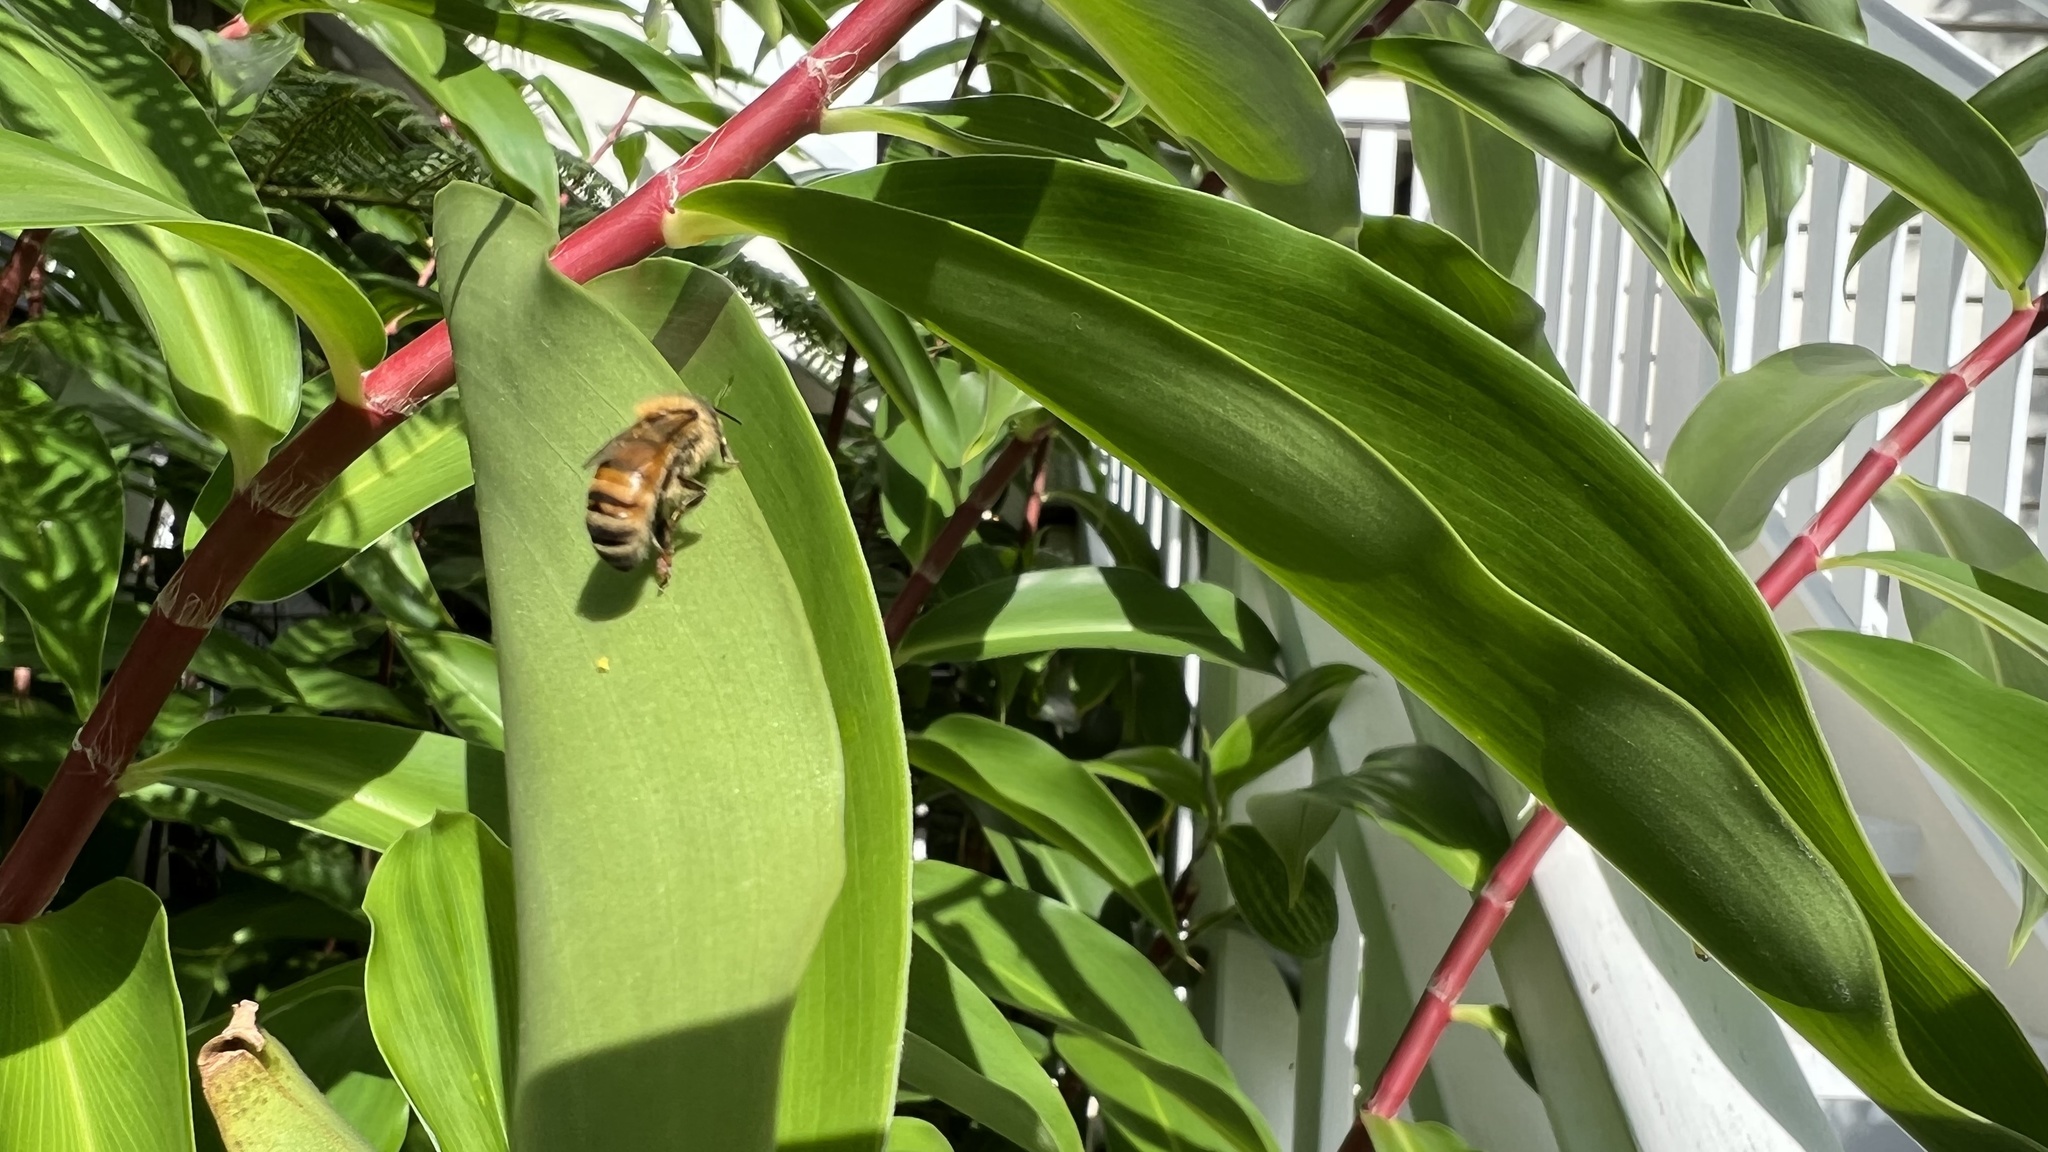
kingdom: Animalia
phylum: Arthropoda
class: Insecta
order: Hymenoptera
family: Apidae
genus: Apis
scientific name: Apis mellifera
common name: Honey bee
